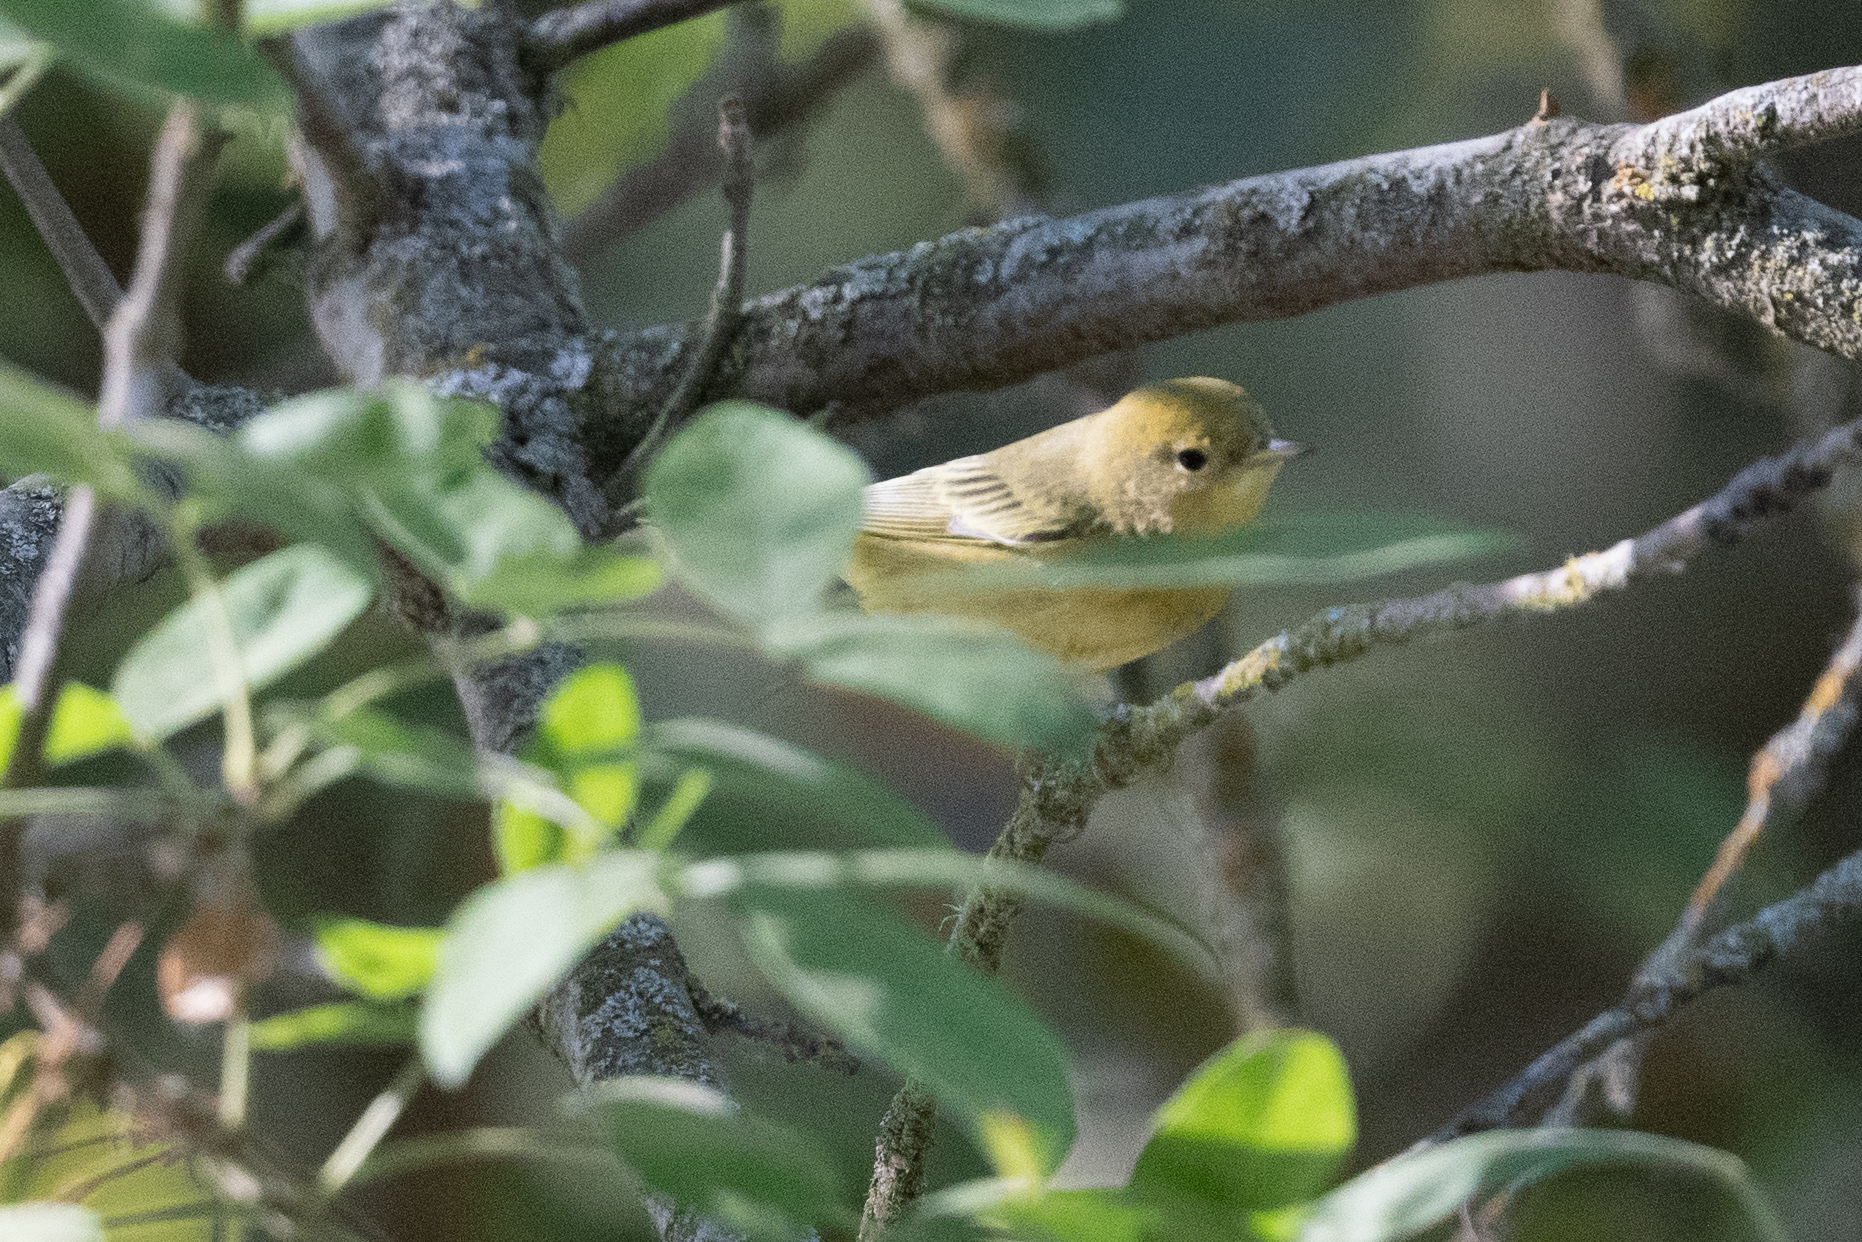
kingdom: Animalia
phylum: Chordata
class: Aves
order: Passeriformes
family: Parulidae
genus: Setophaga
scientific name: Setophaga petechia
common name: Yellow warbler
